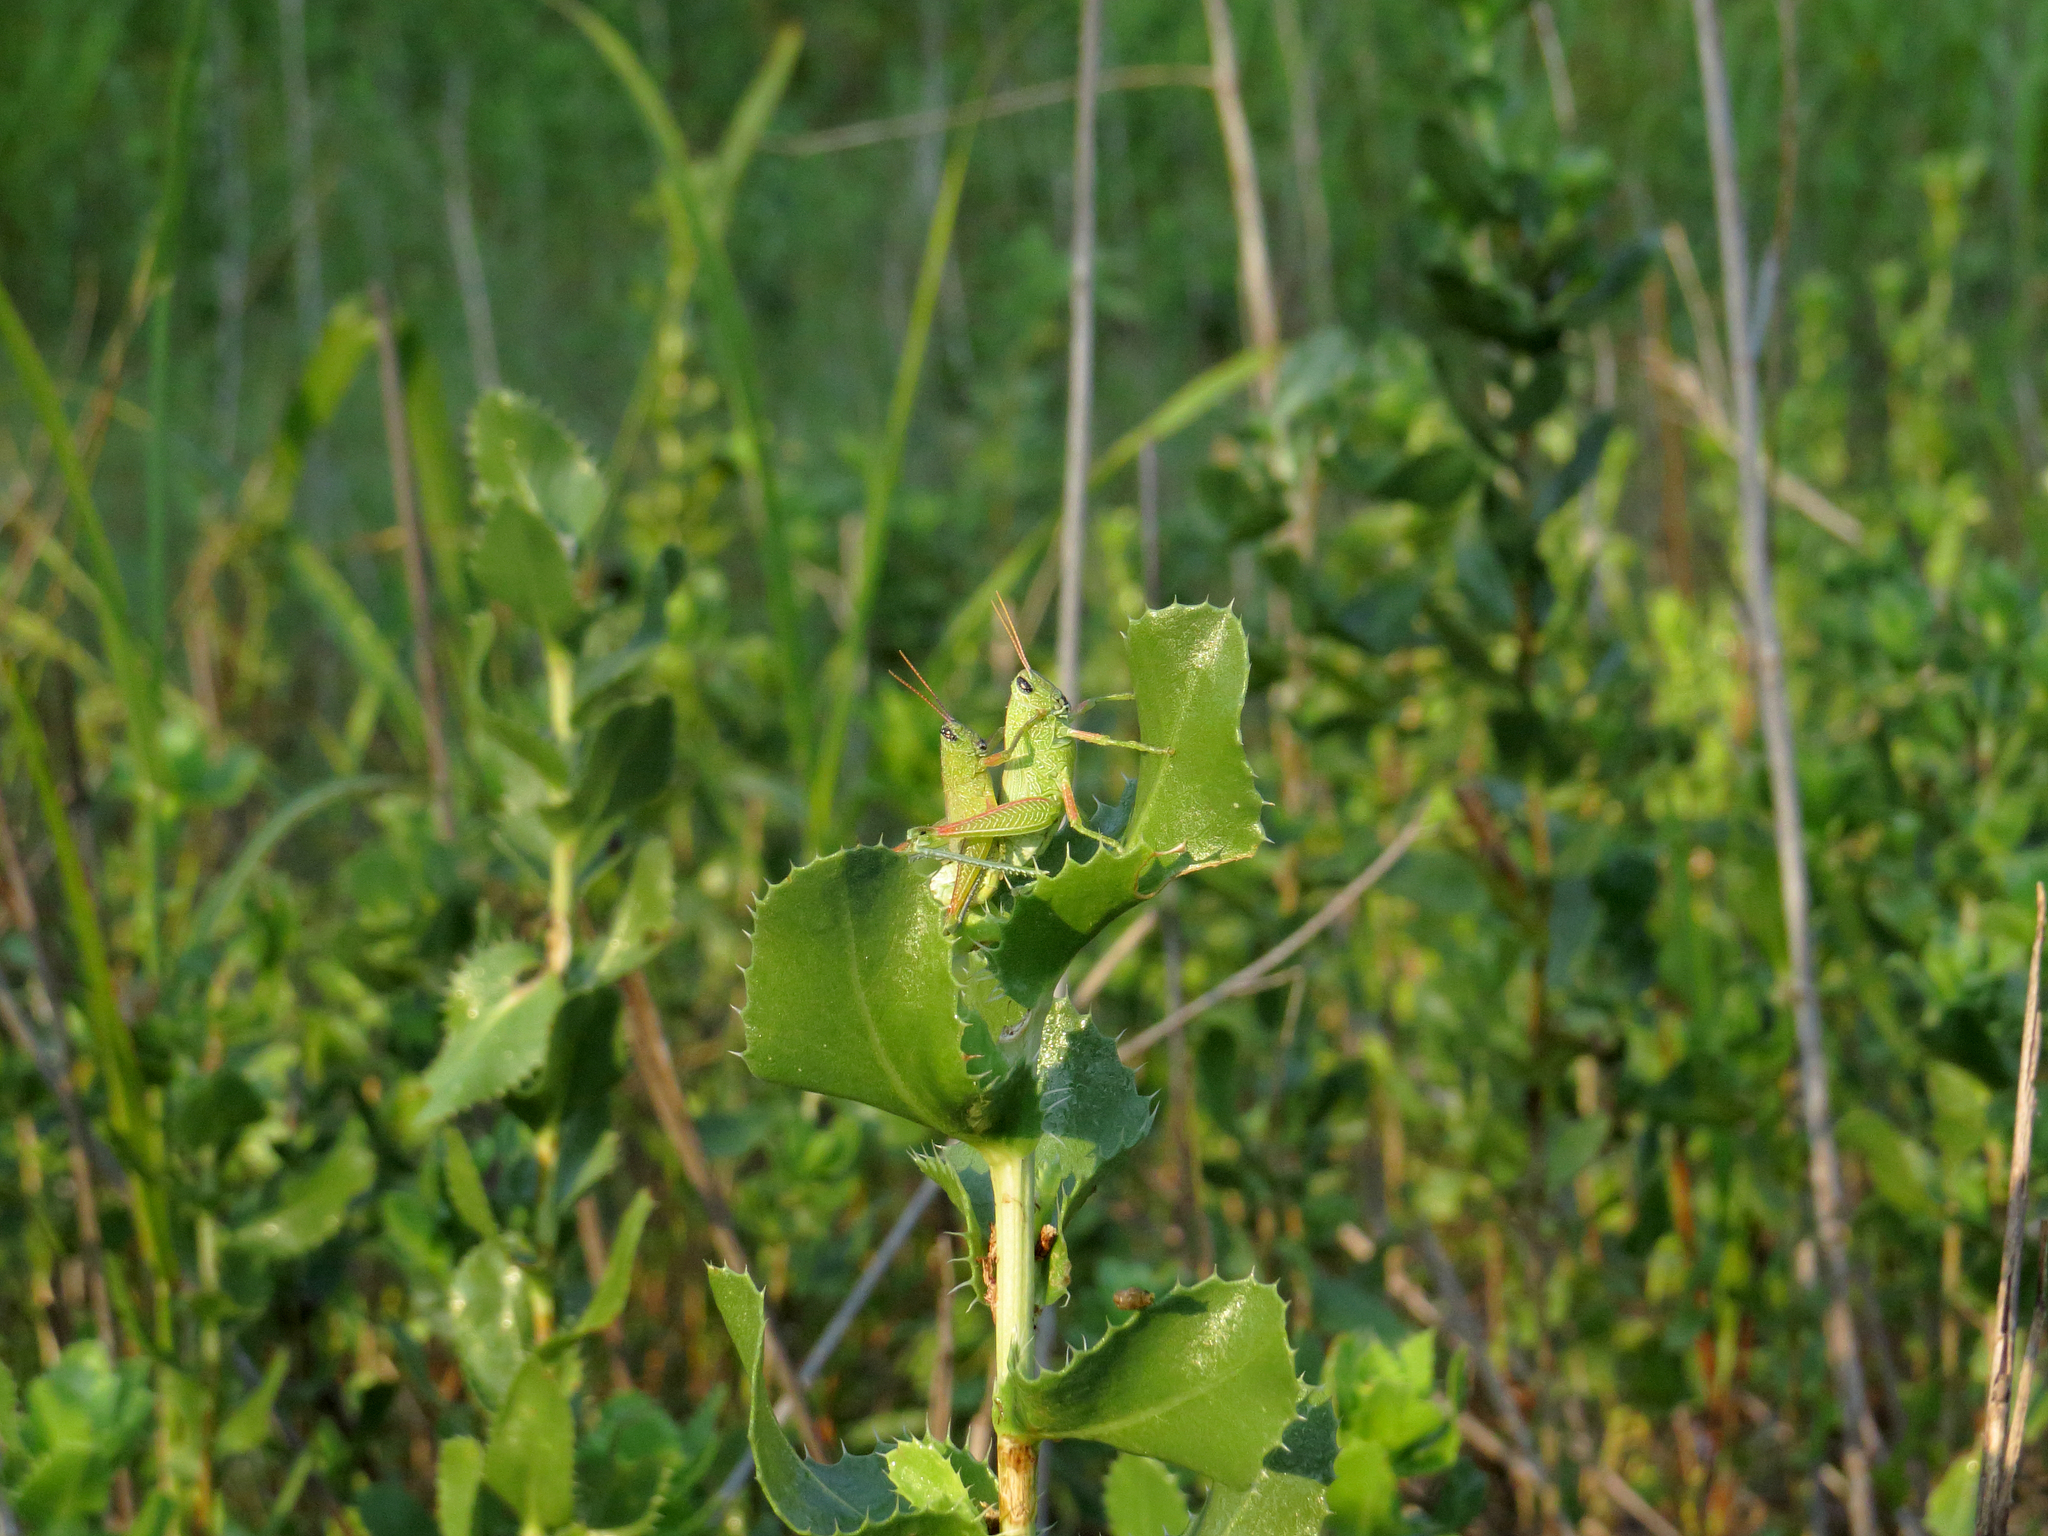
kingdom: Animalia
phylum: Arthropoda
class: Insecta
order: Orthoptera
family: Acrididae
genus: Hesperotettix
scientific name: Hesperotettix speciosus
